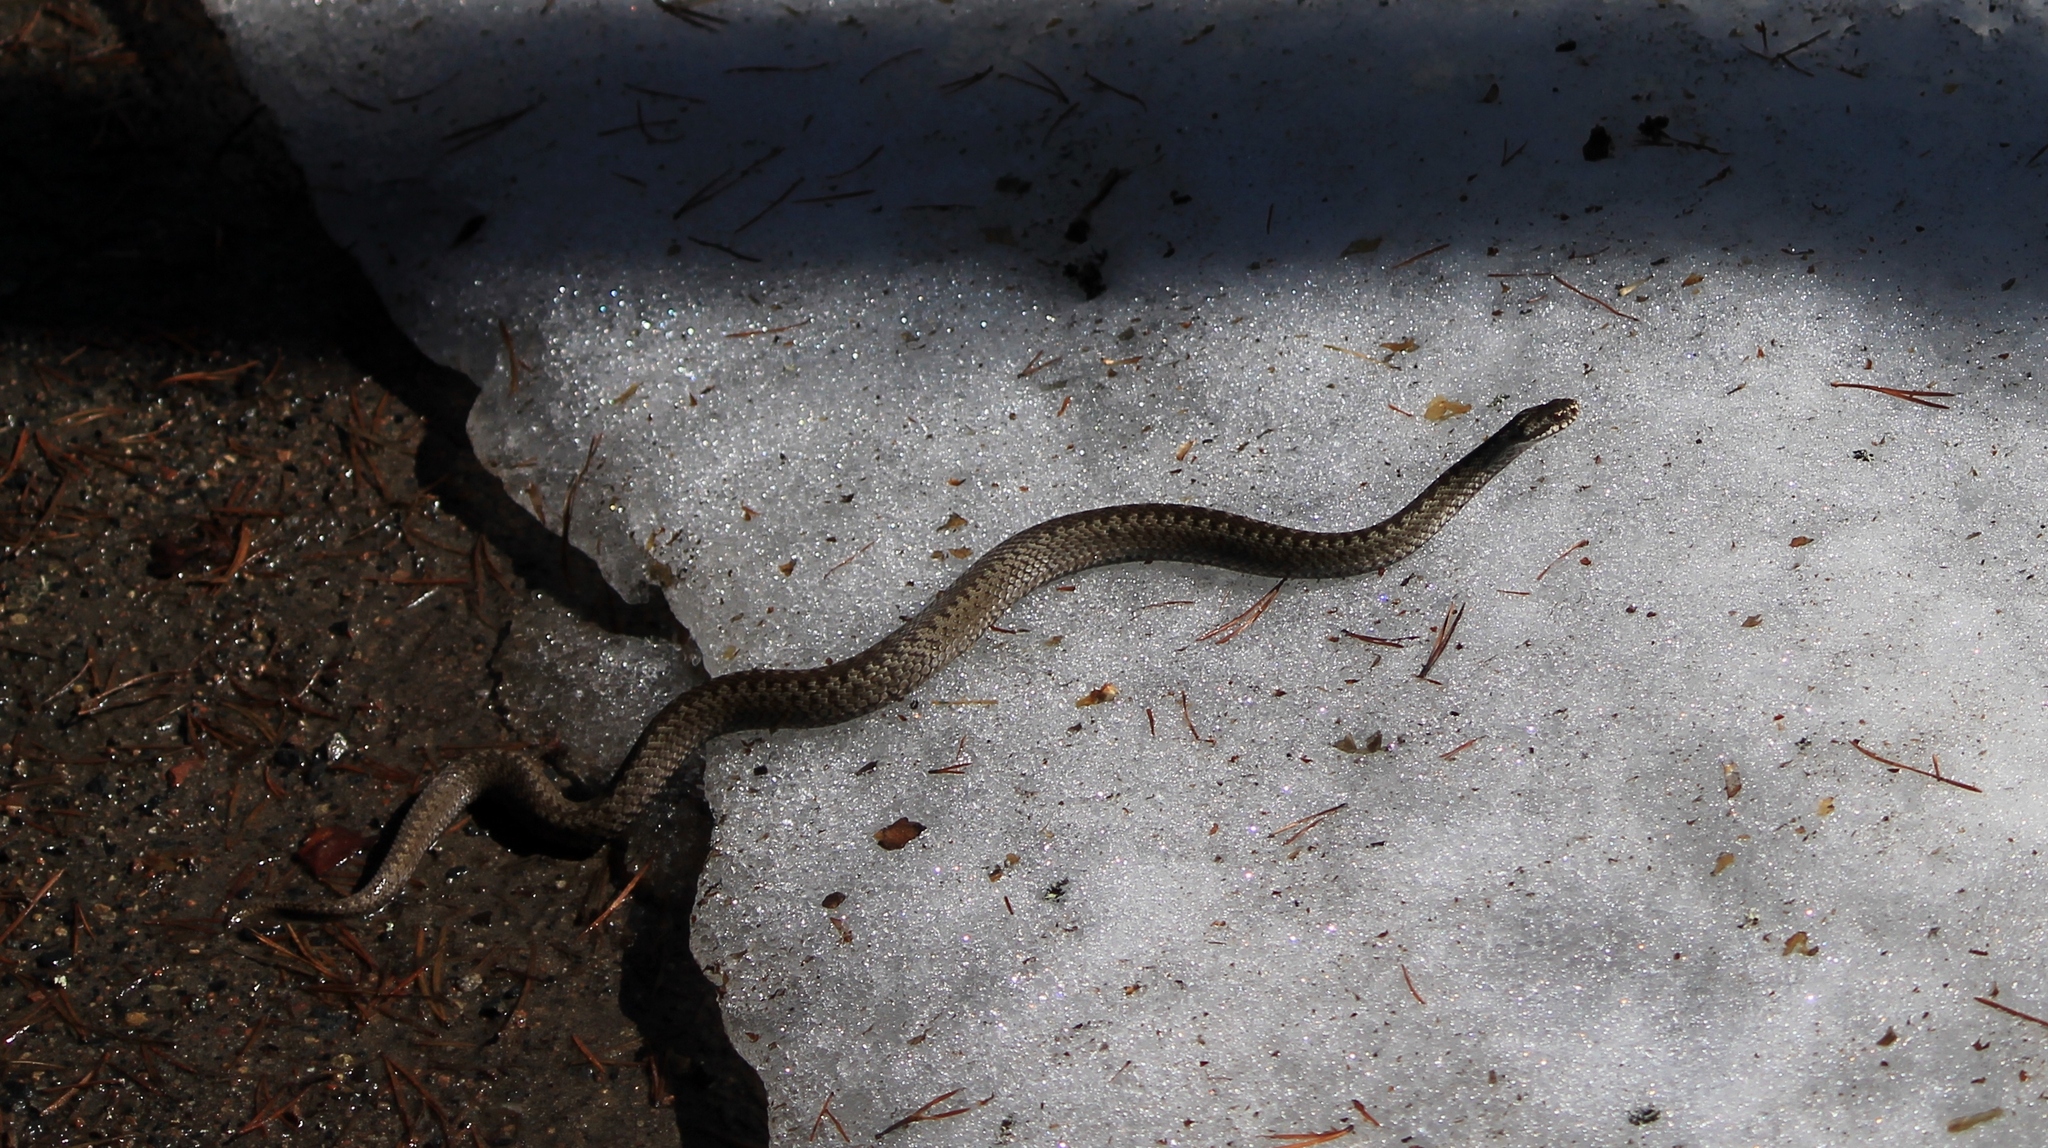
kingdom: Animalia
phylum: Chordata
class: Squamata
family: Viperidae
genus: Vipera
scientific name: Vipera berus
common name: Adder
